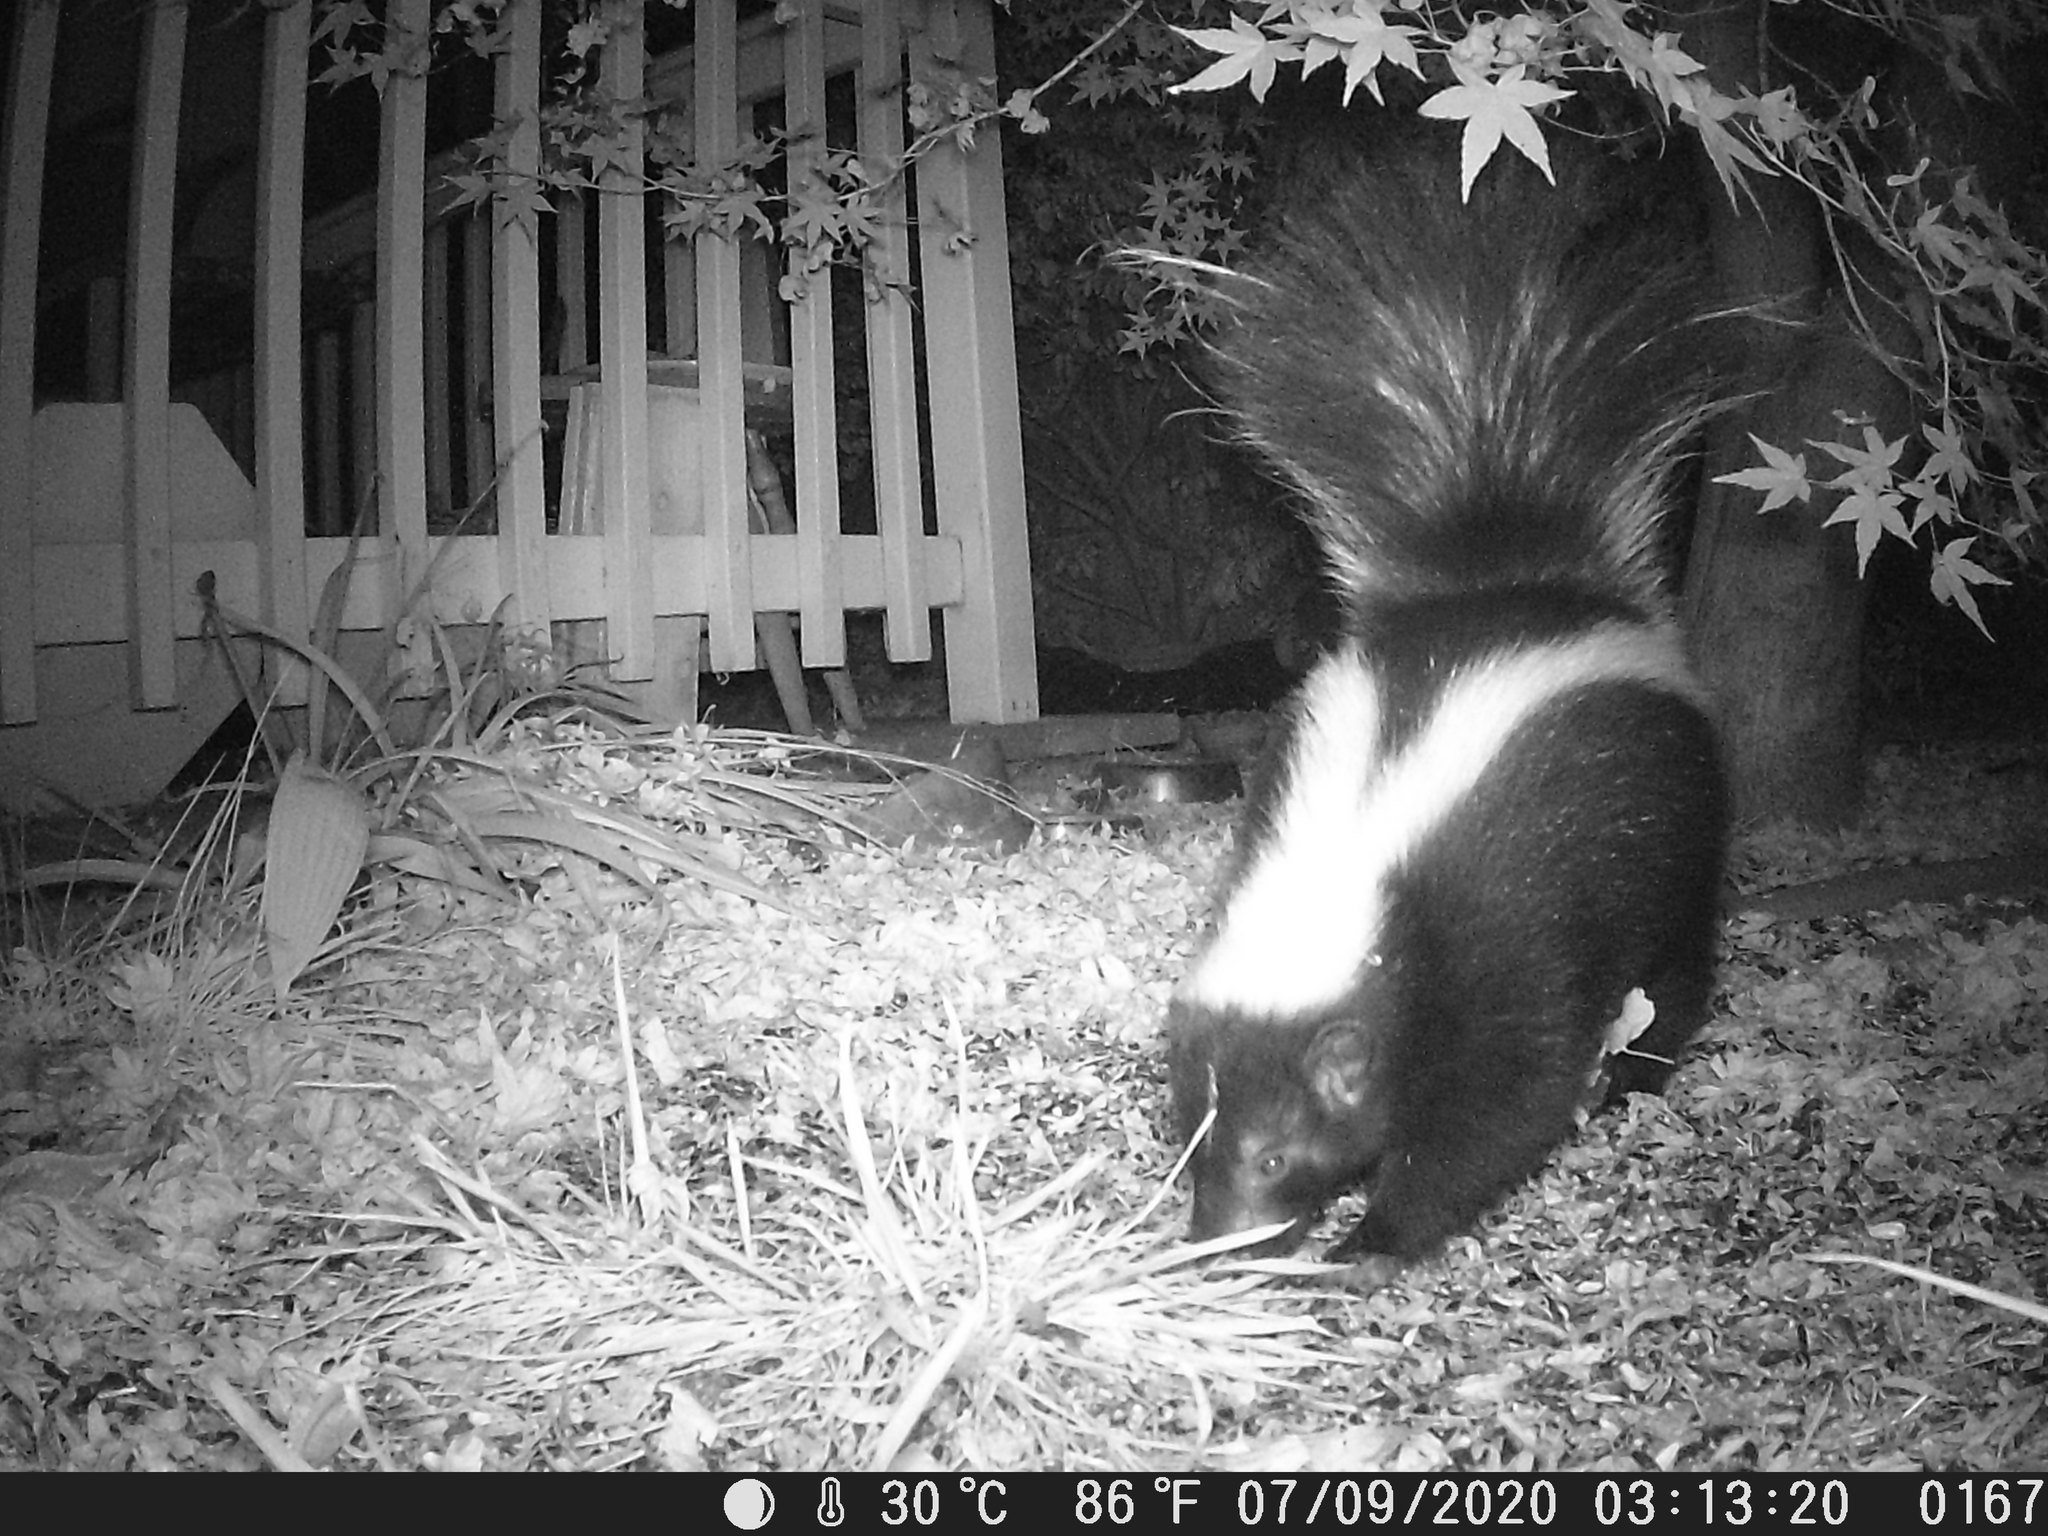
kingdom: Animalia
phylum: Chordata
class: Mammalia
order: Carnivora
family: Mephitidae
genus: Mephitis
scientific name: Mephitis mephitis
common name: Striped skunk
